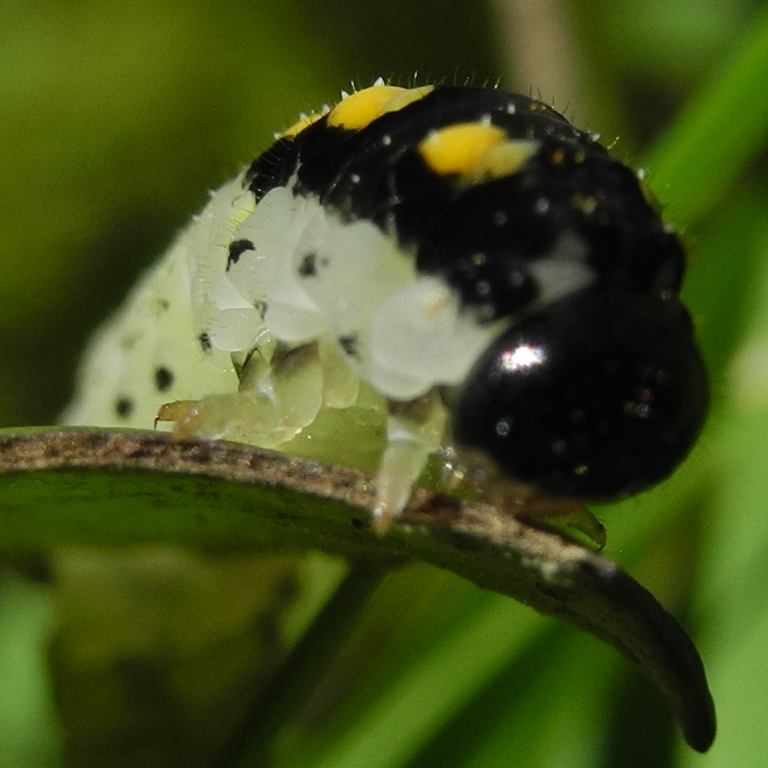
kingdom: Animalia
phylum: Arthropoda
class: Insecta
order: Hymenoptera
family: Tenthredinidae
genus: Tenthredo
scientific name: Tenthredo mandibularis
